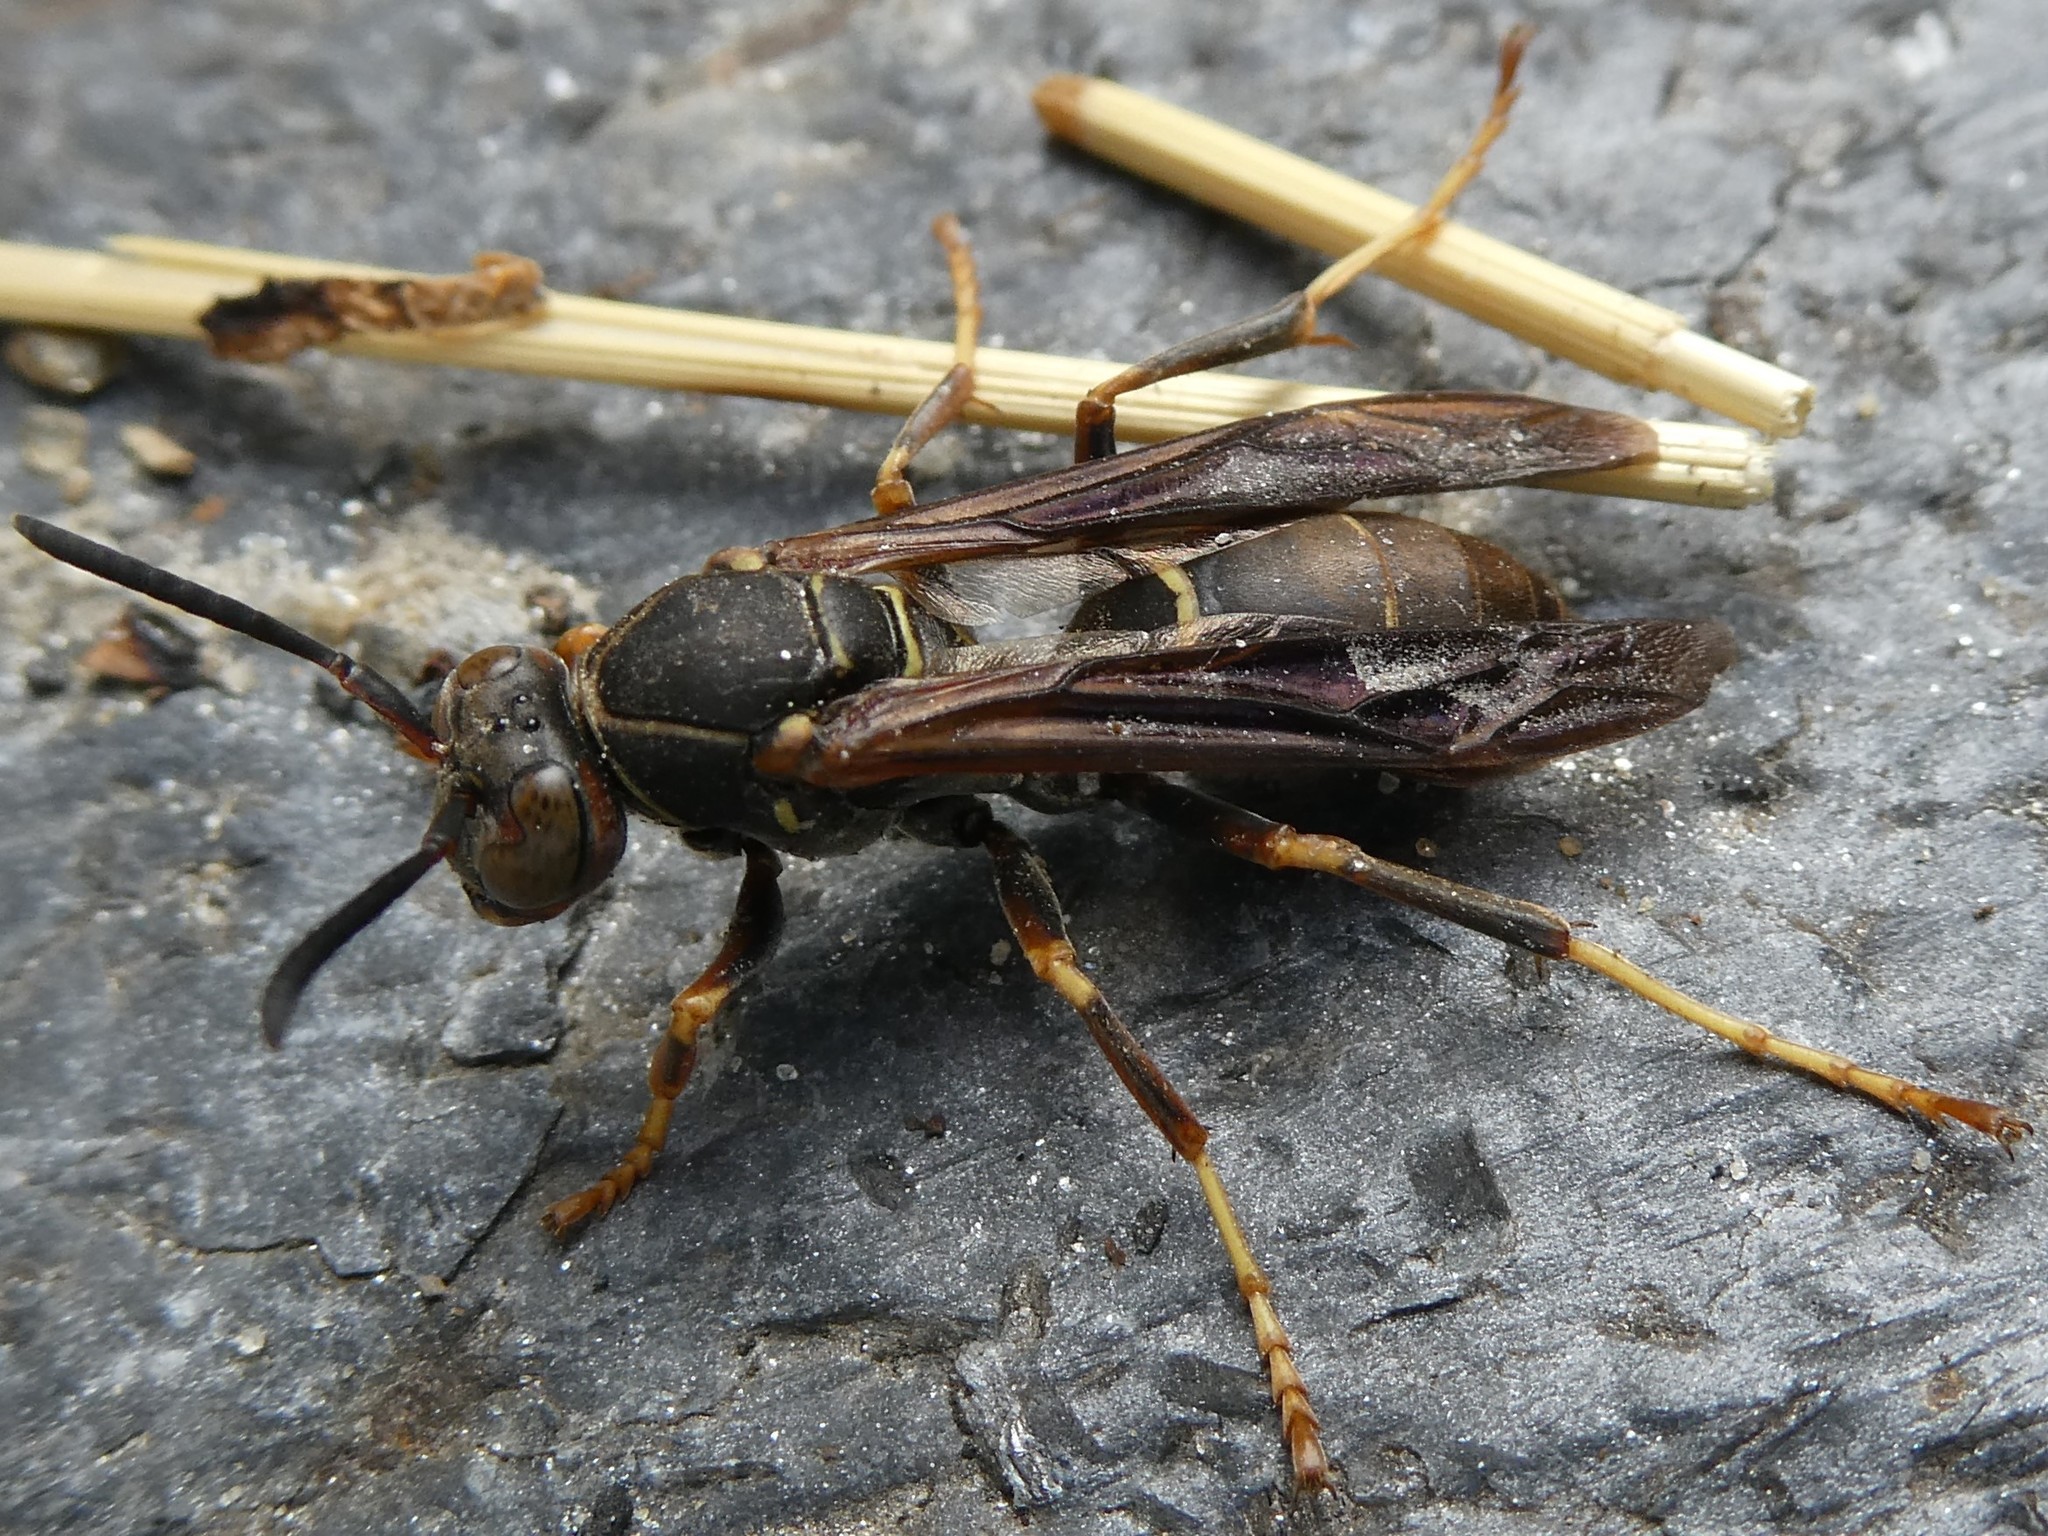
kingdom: Animalia
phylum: Arthropoda
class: Insecta
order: Hymenoptera
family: Eumenidae
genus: Polistes
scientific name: Polistes fuscatus
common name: Dark paper wasp
